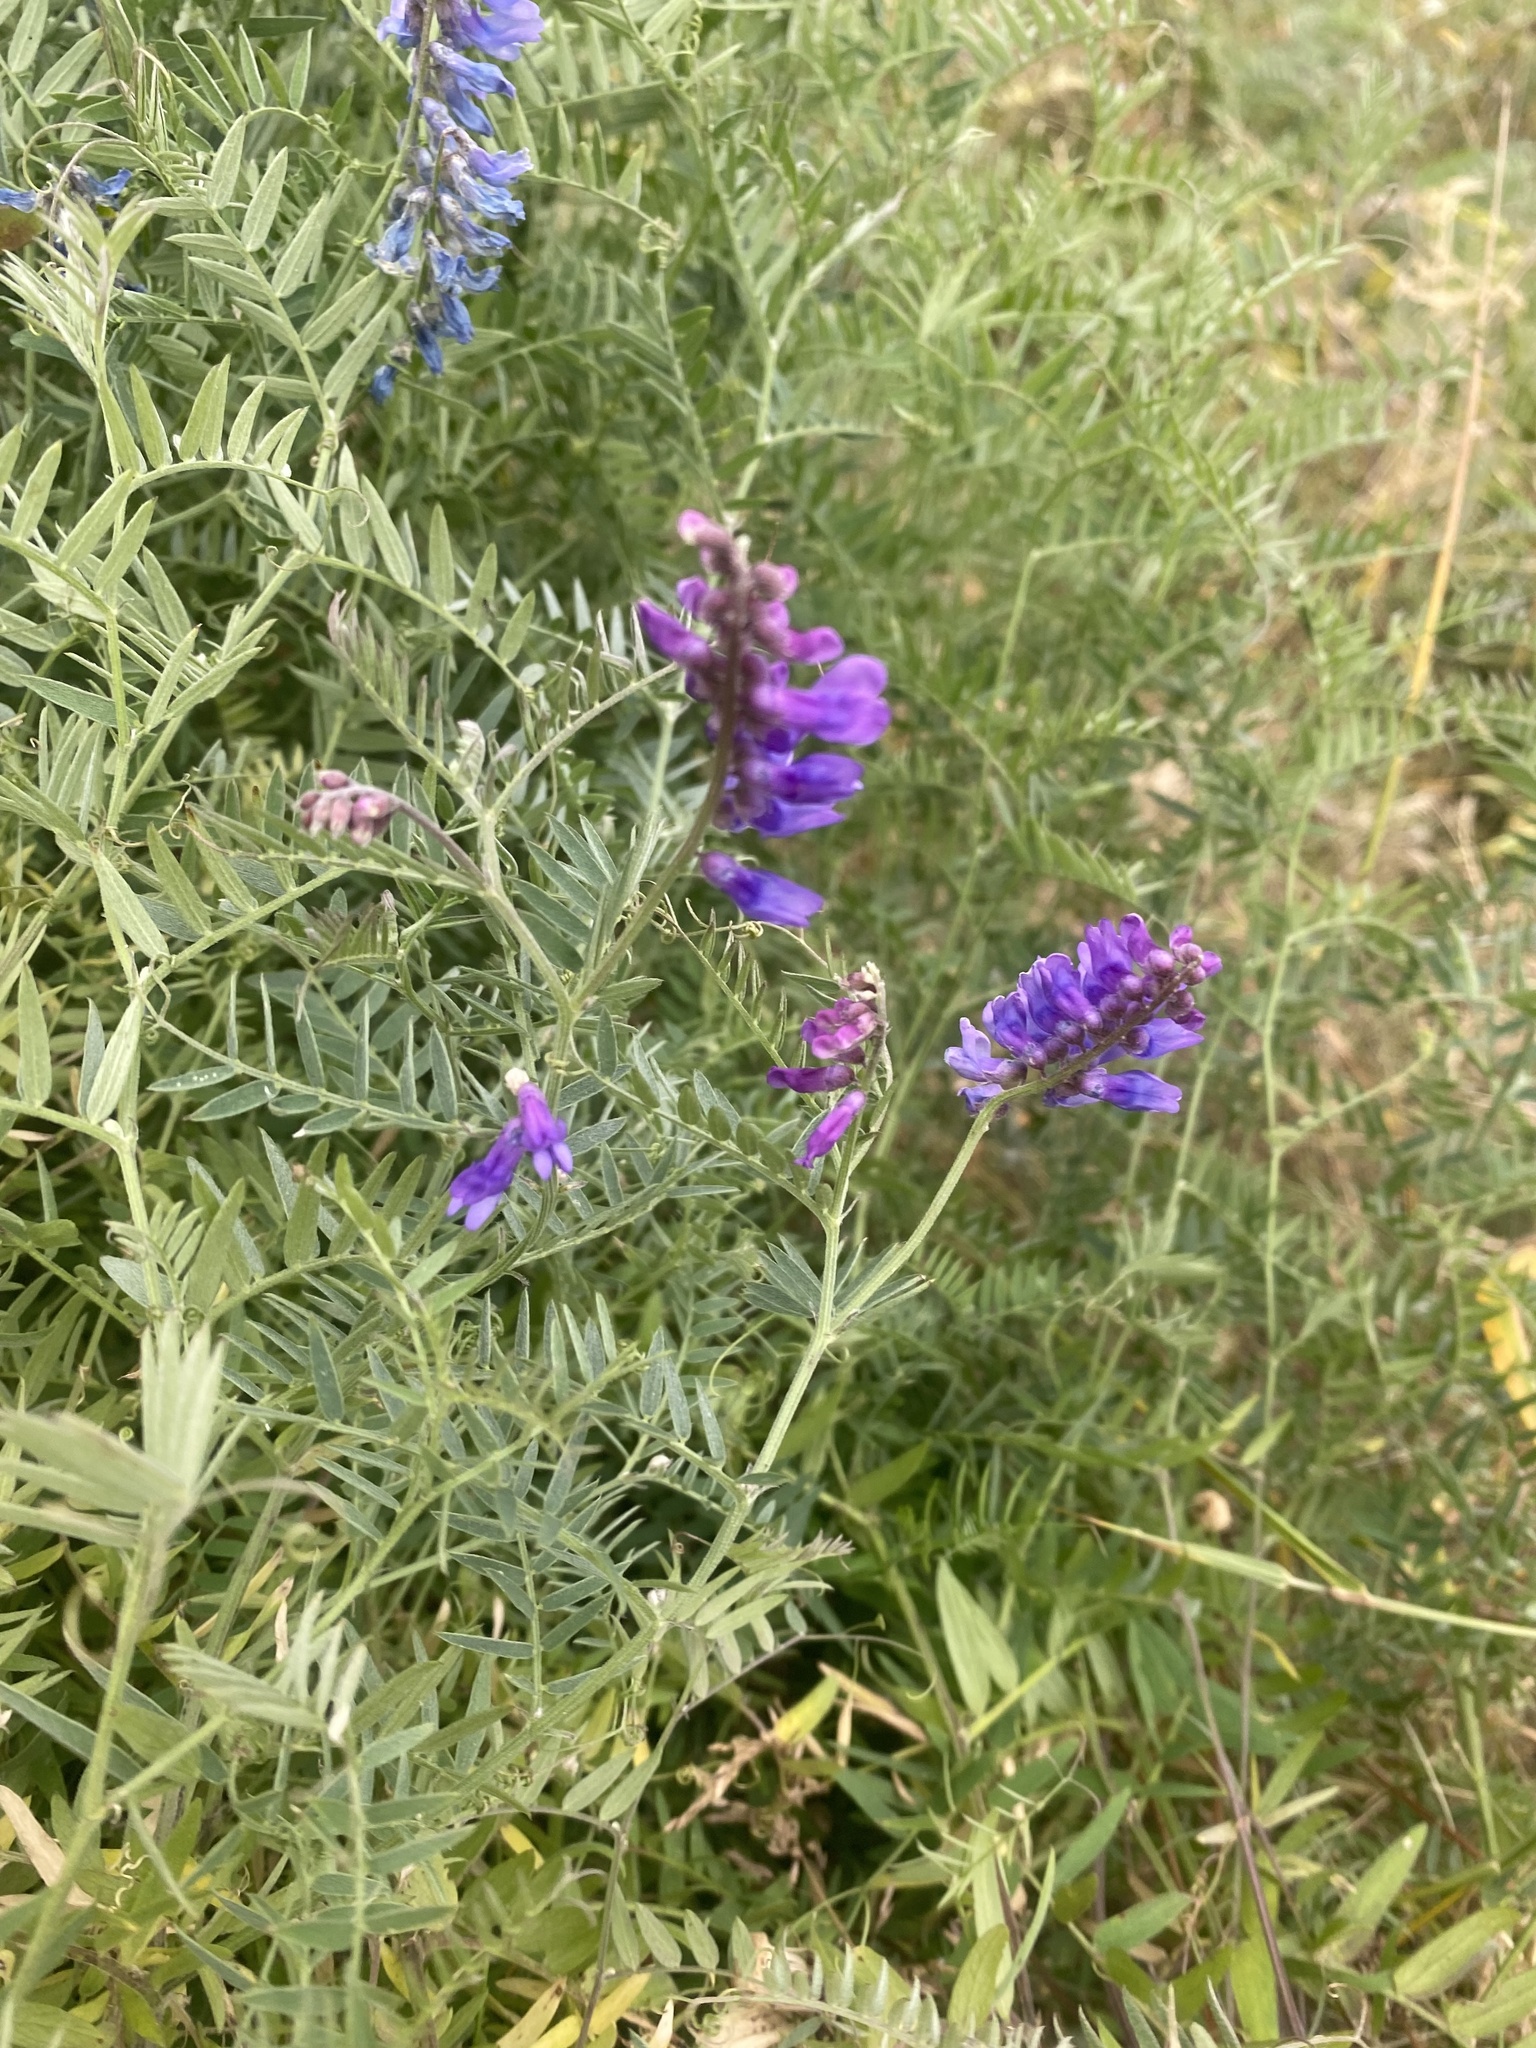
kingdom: Plantae
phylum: Tracheophyta
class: Magnoliopsida
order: Fabales
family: Fabaceae
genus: Vicia
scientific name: Vicia cracca
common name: Bird vetch
